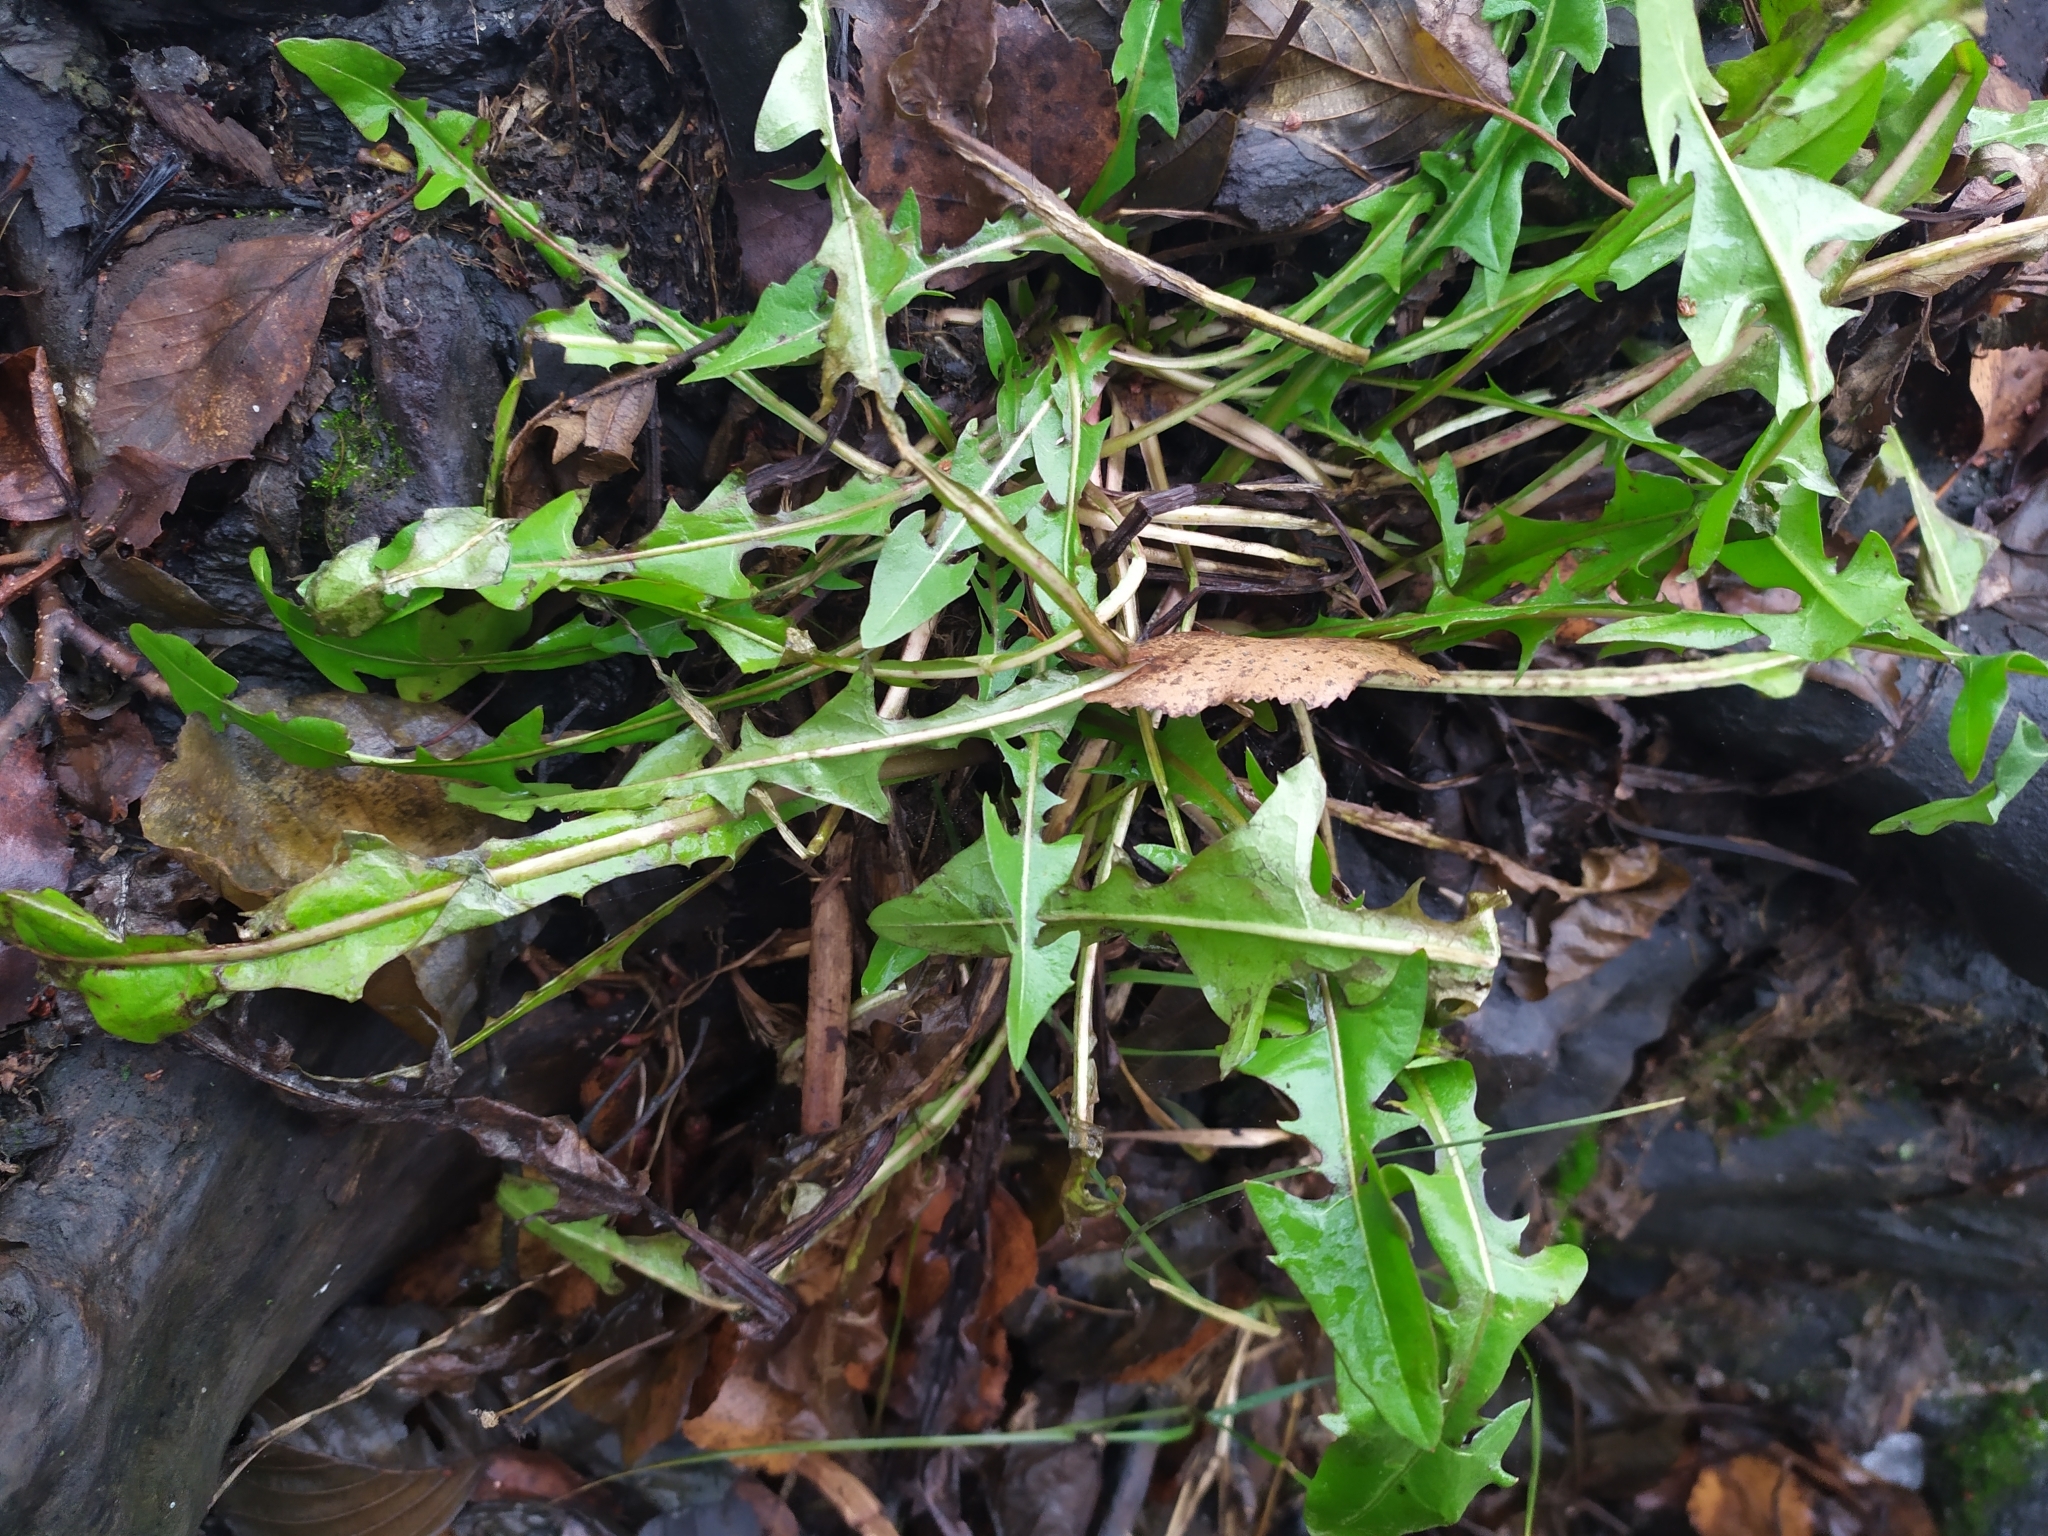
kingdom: Plantae
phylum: Tracheophyta
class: Magnoliopsida
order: Asterales
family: Asteraceae
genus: Taraxacum
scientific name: Taraxacum officinale
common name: Common dandelion
